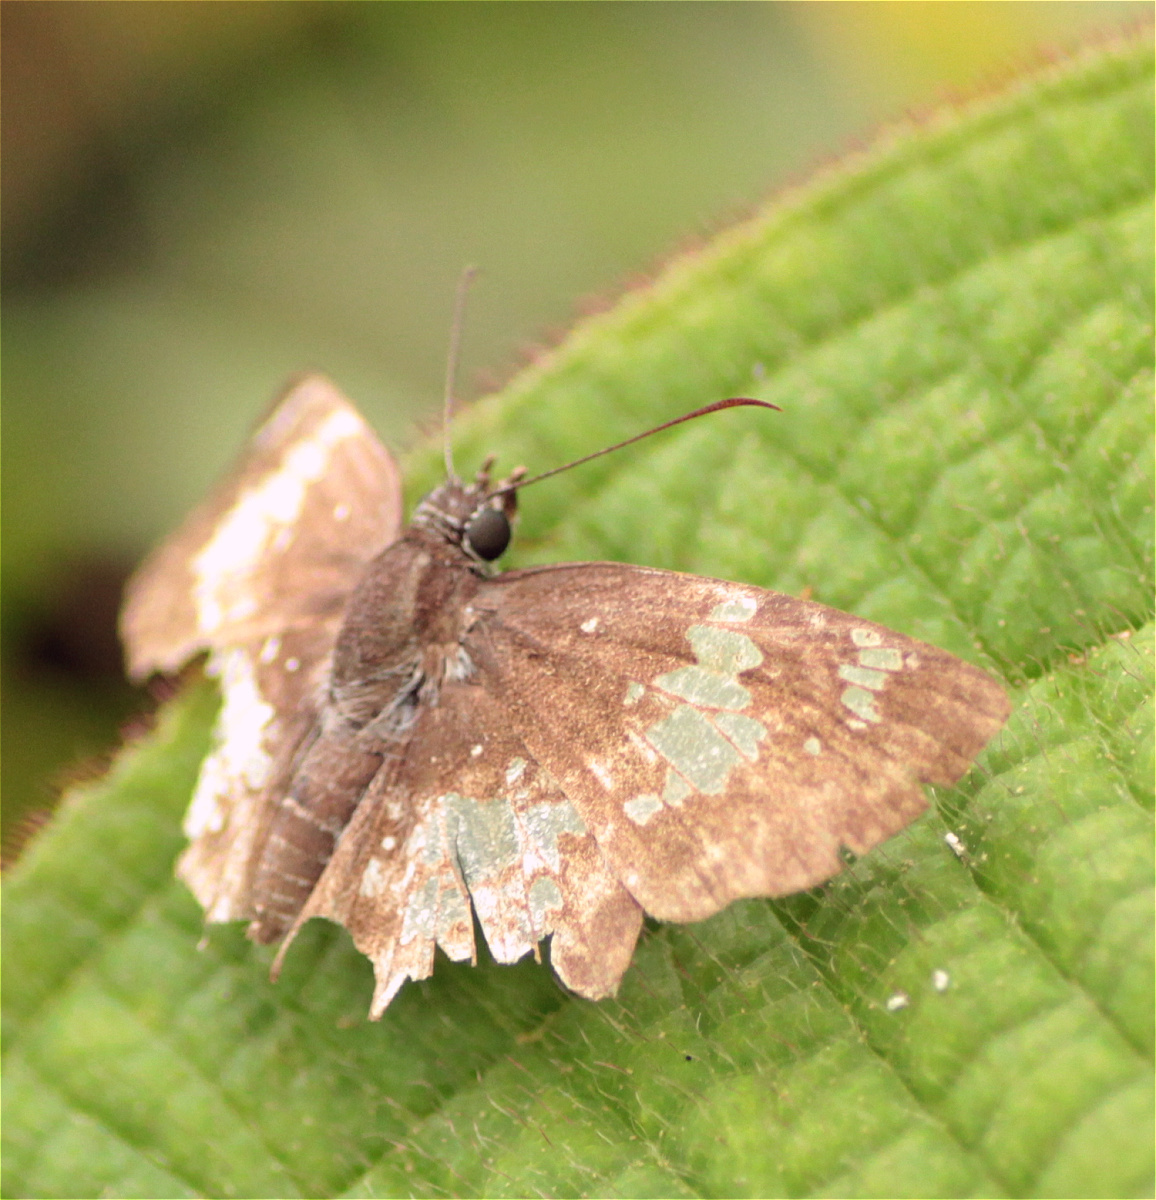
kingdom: Animalia
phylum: Arthropoda
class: Insecta
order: Lepidoptera
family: Hesperiidae
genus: Xenophanes
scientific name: Xenophanes tryxus
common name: Glassy-winged skipper
